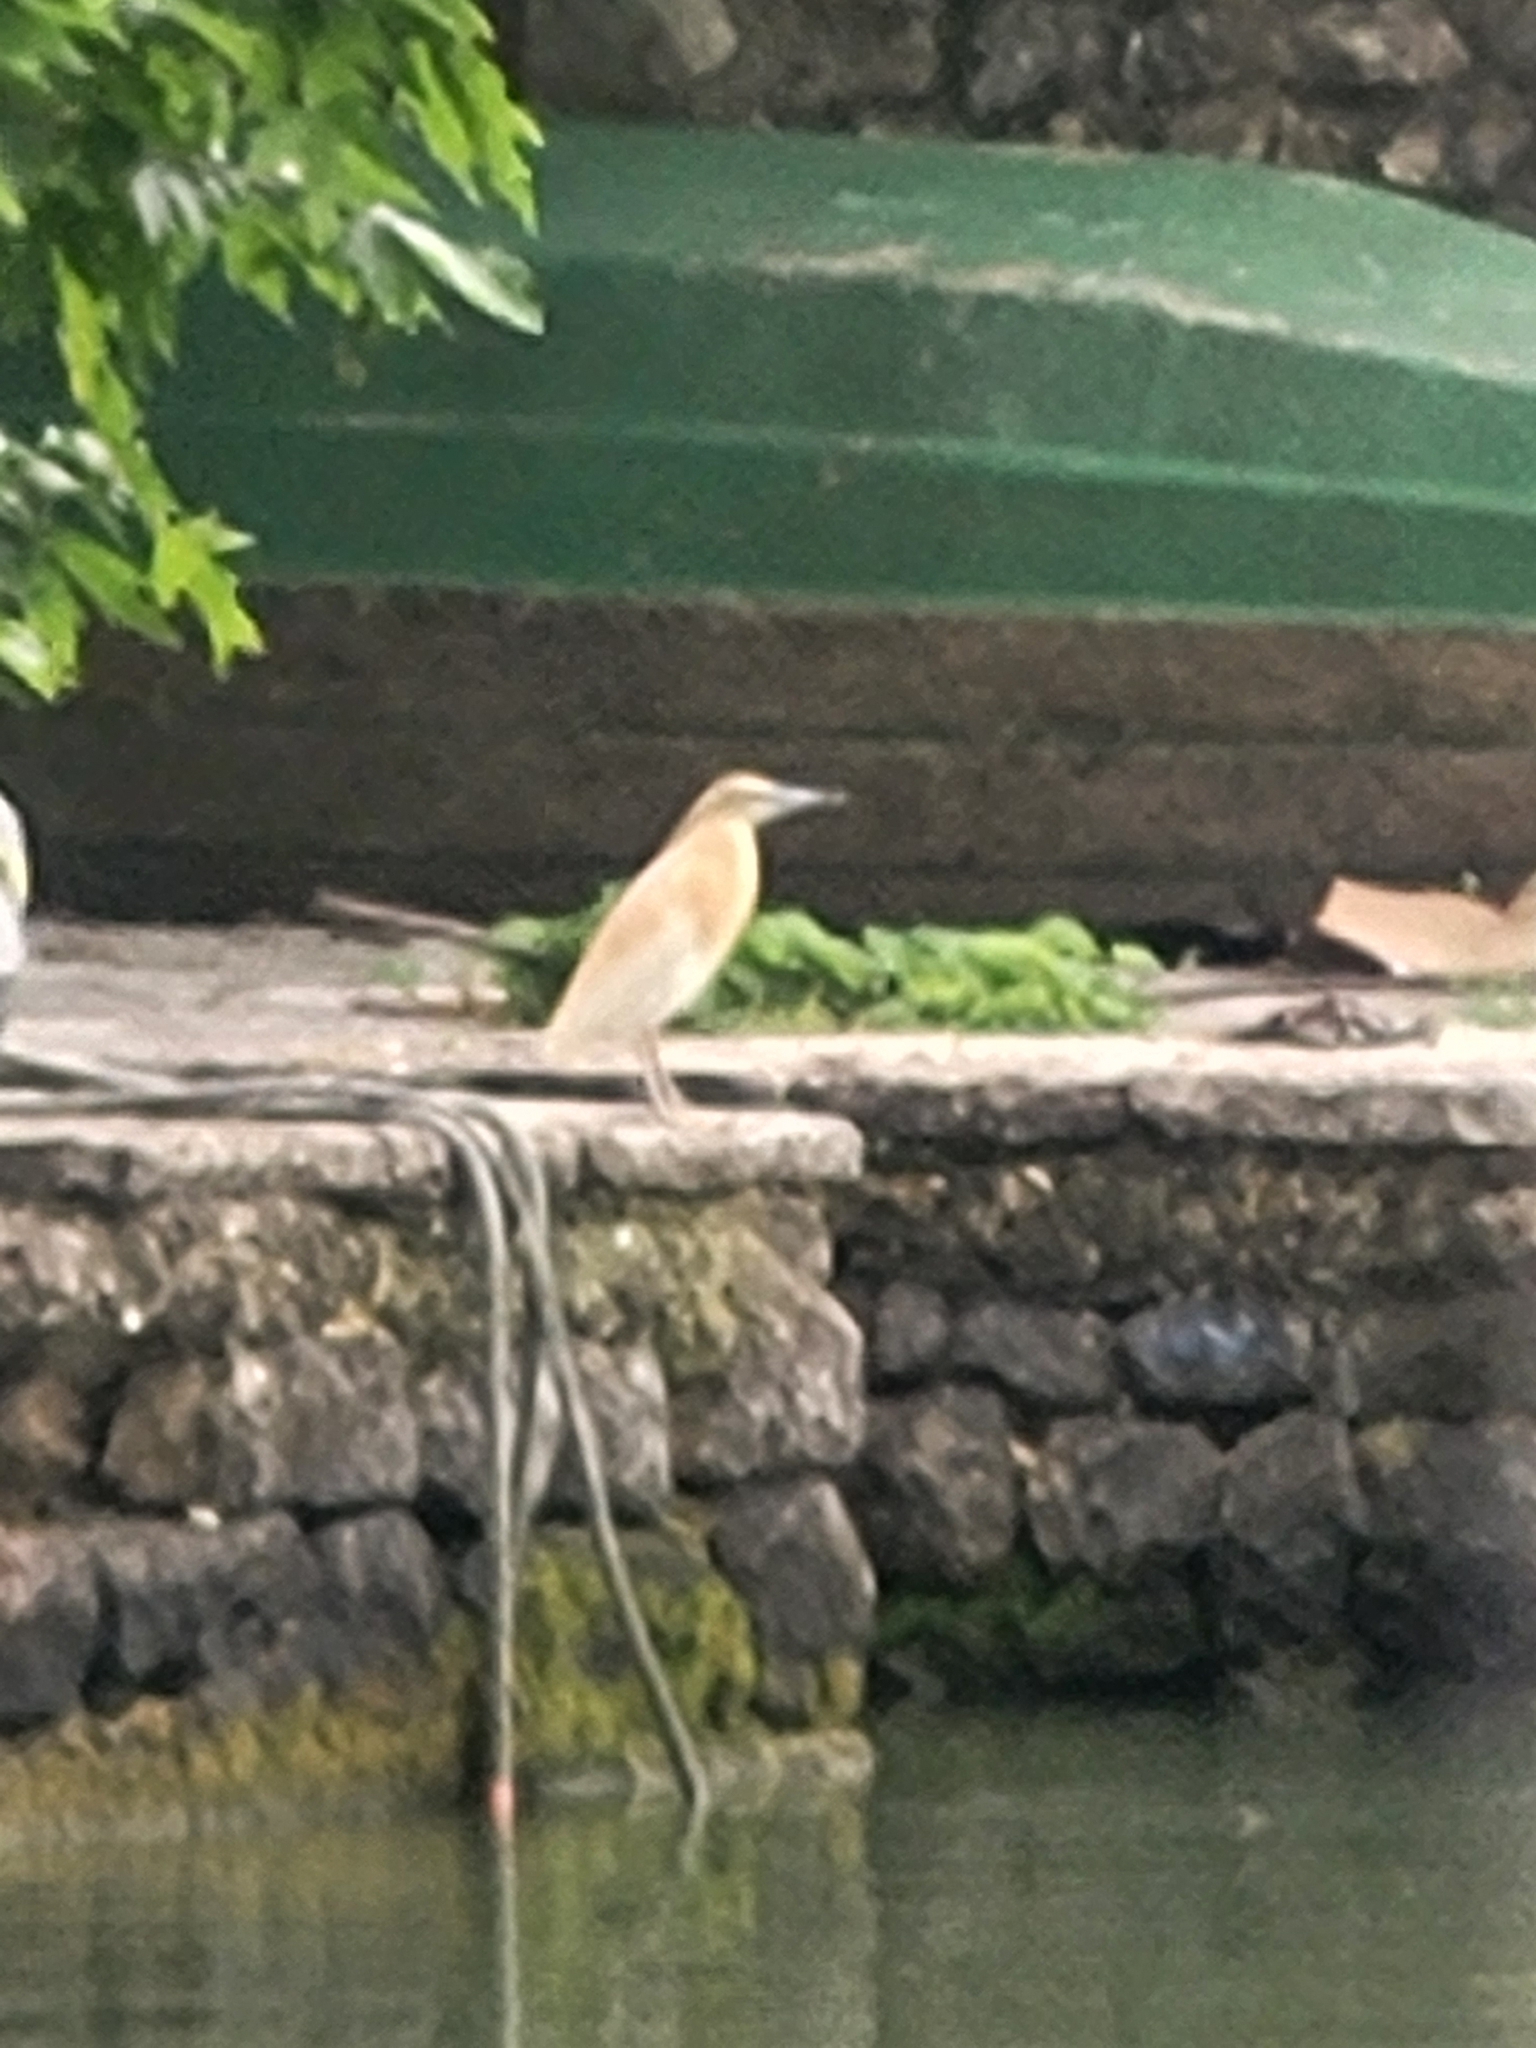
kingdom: Animalia
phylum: Chordata
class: Aves
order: Pelecaniformes
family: Ardeidae
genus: Ardeola
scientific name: Ardeola ralloides
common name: Squacco heron
